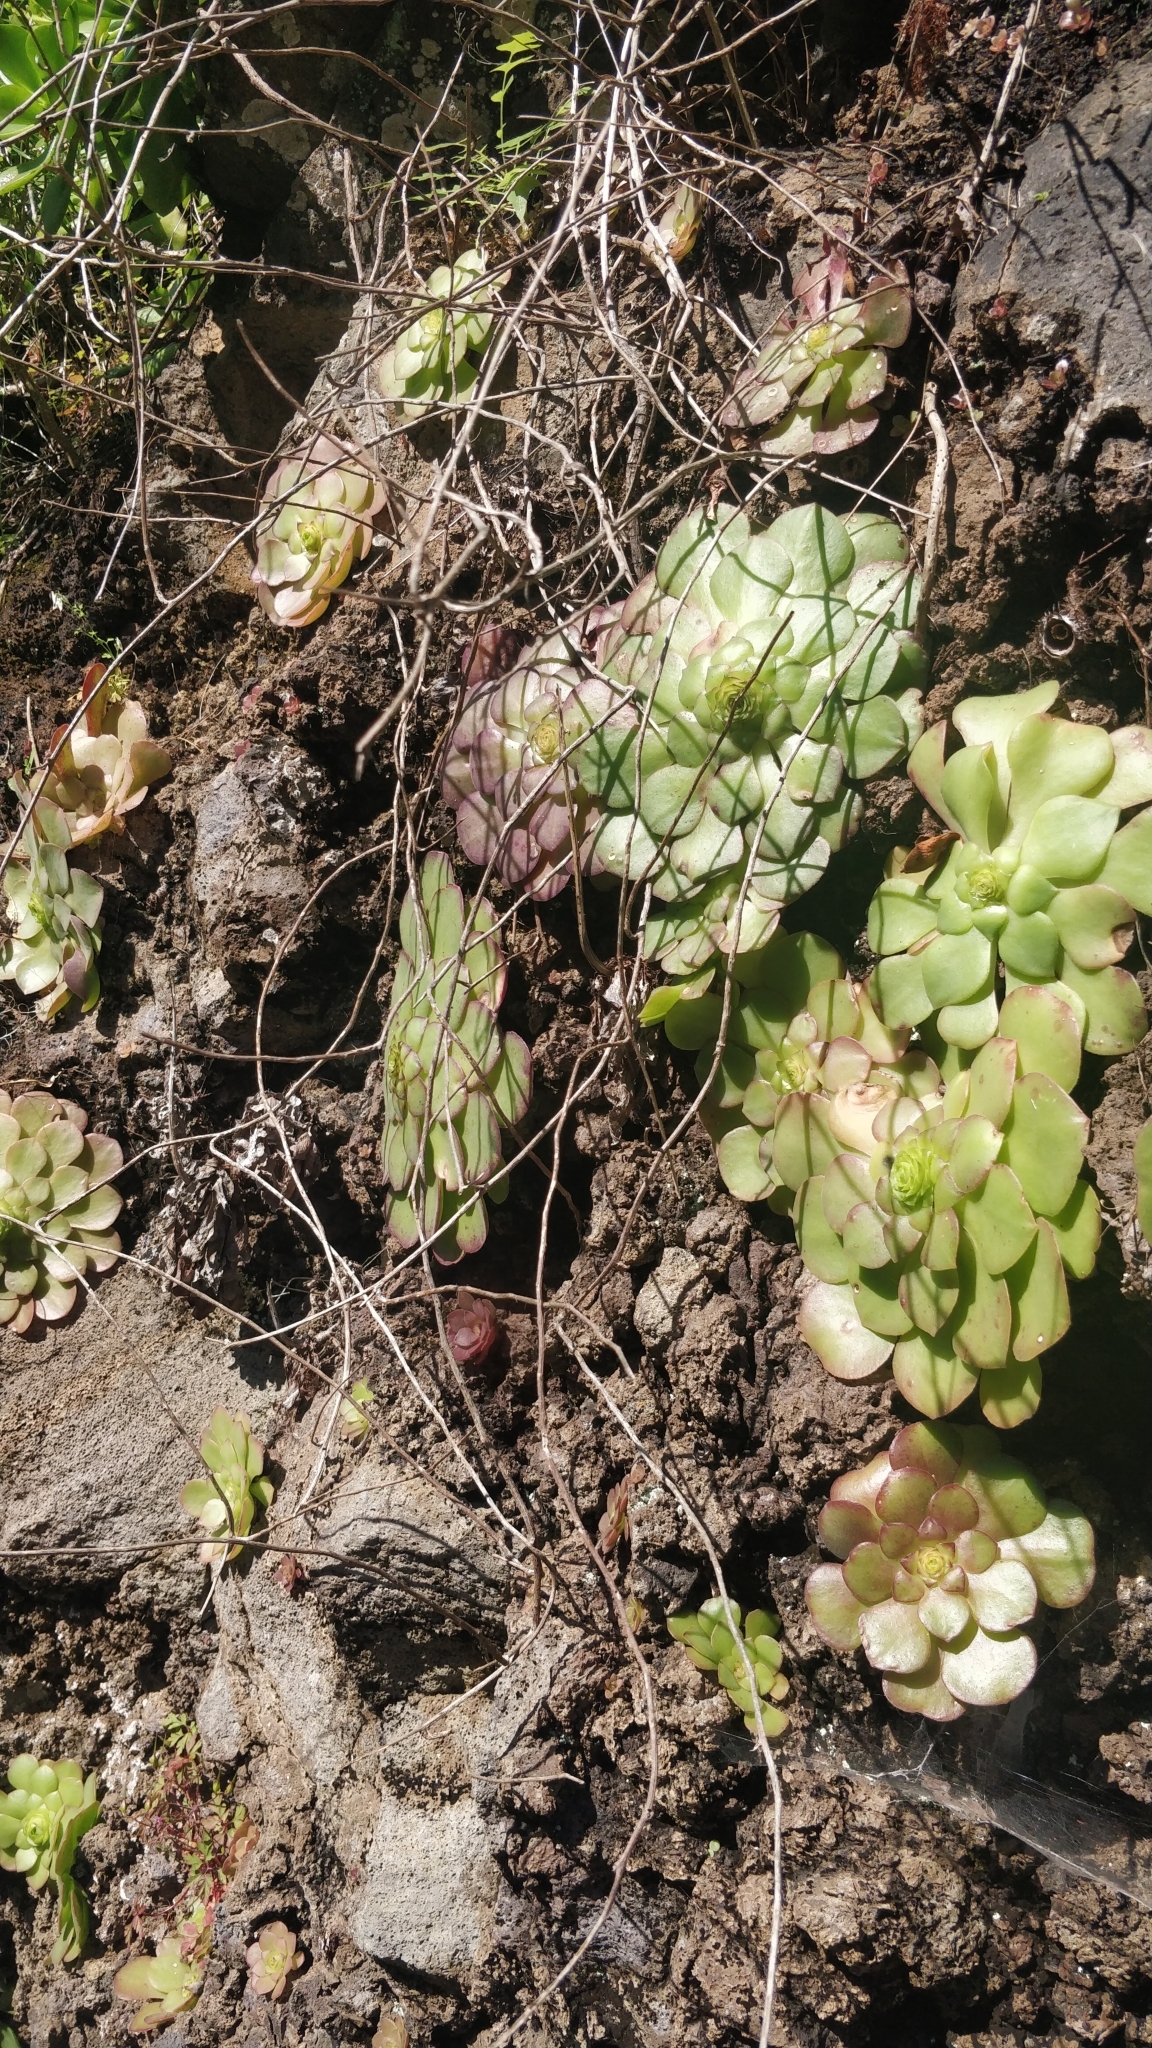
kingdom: Plantae
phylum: Tracheophyta
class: Magnoliopsida
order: Saxifragales
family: Crassulaceae
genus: Aeonium
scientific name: Aeonium glandulosum
